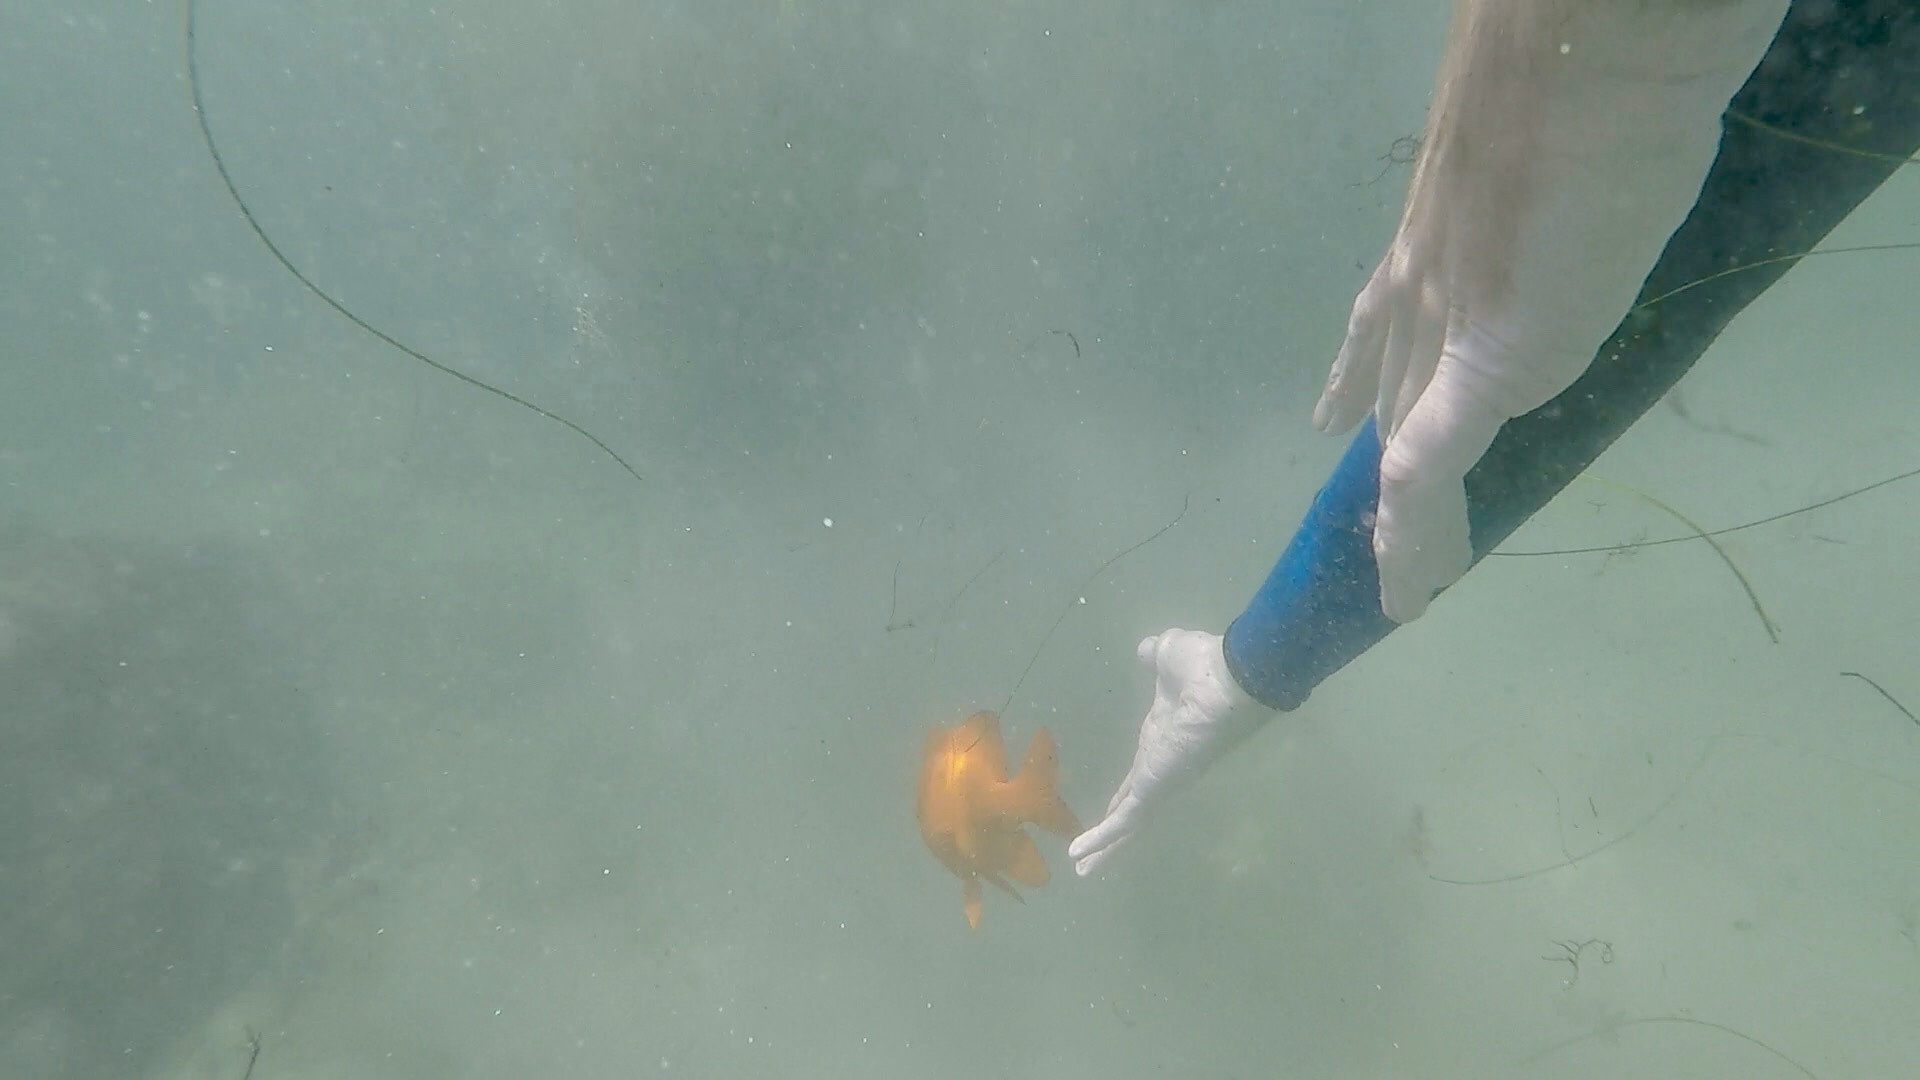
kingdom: Animalia
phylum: Chordata
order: Perciformes
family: Pomacentridae
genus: Hypsypops
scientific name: Hypsypops rubicundus
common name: Garibaldi
